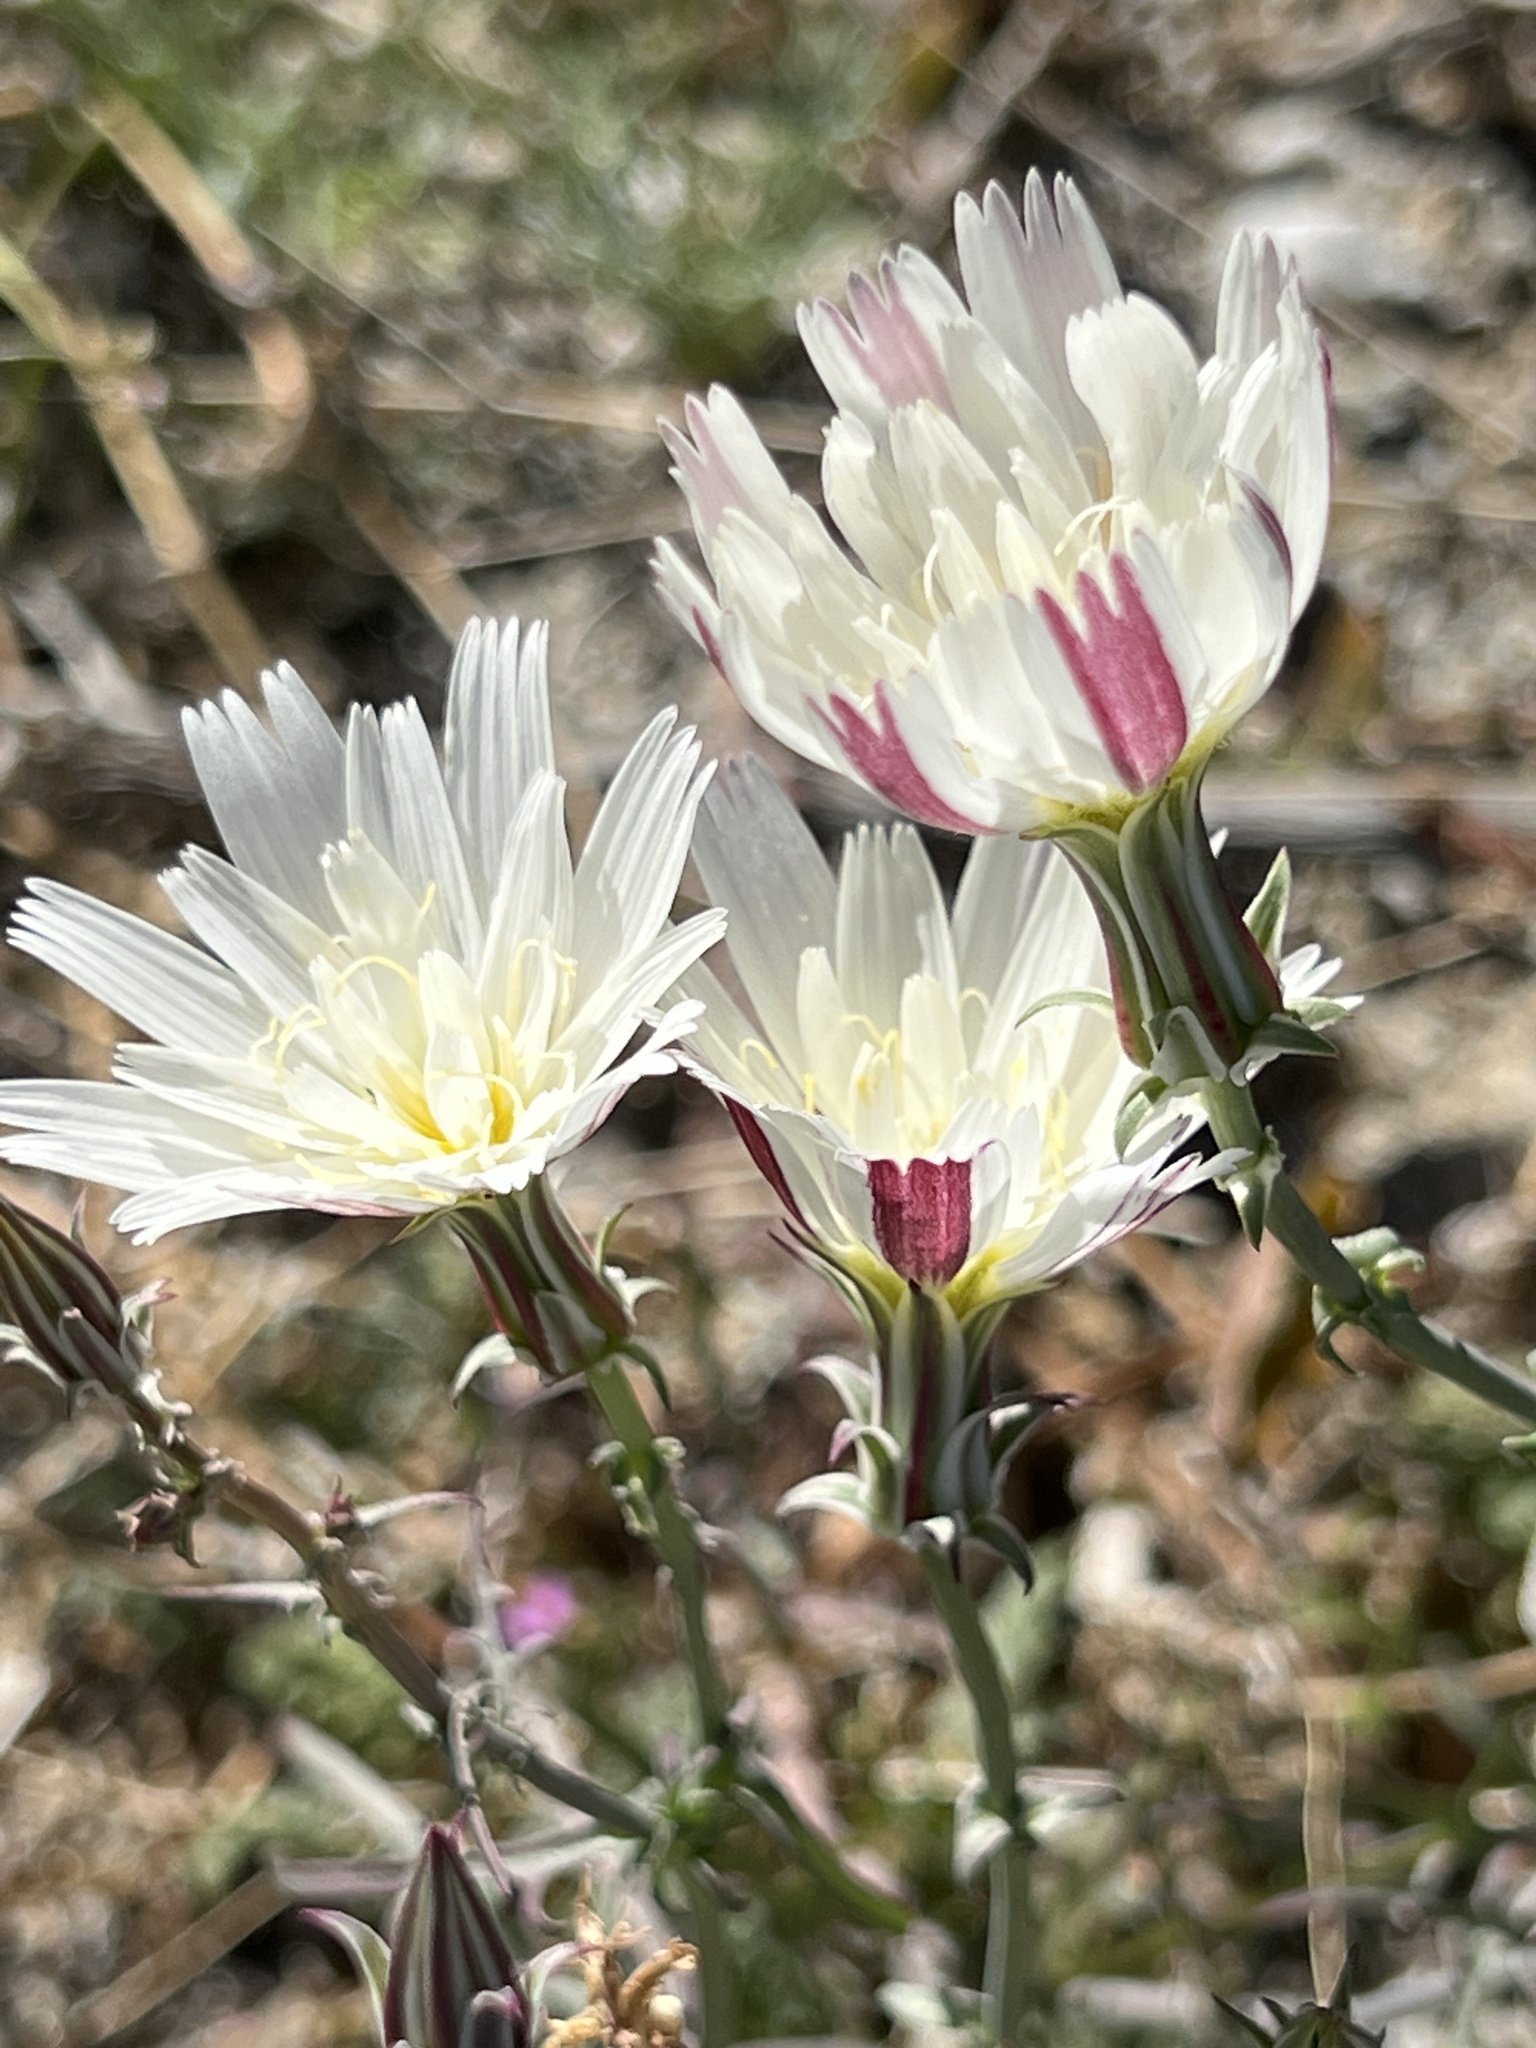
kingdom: Plantae
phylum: Tracheophyta
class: Magnoliopsida
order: Asterales
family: Asteraceae
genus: Rafinesquia
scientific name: Rafinesquia neomexicana
